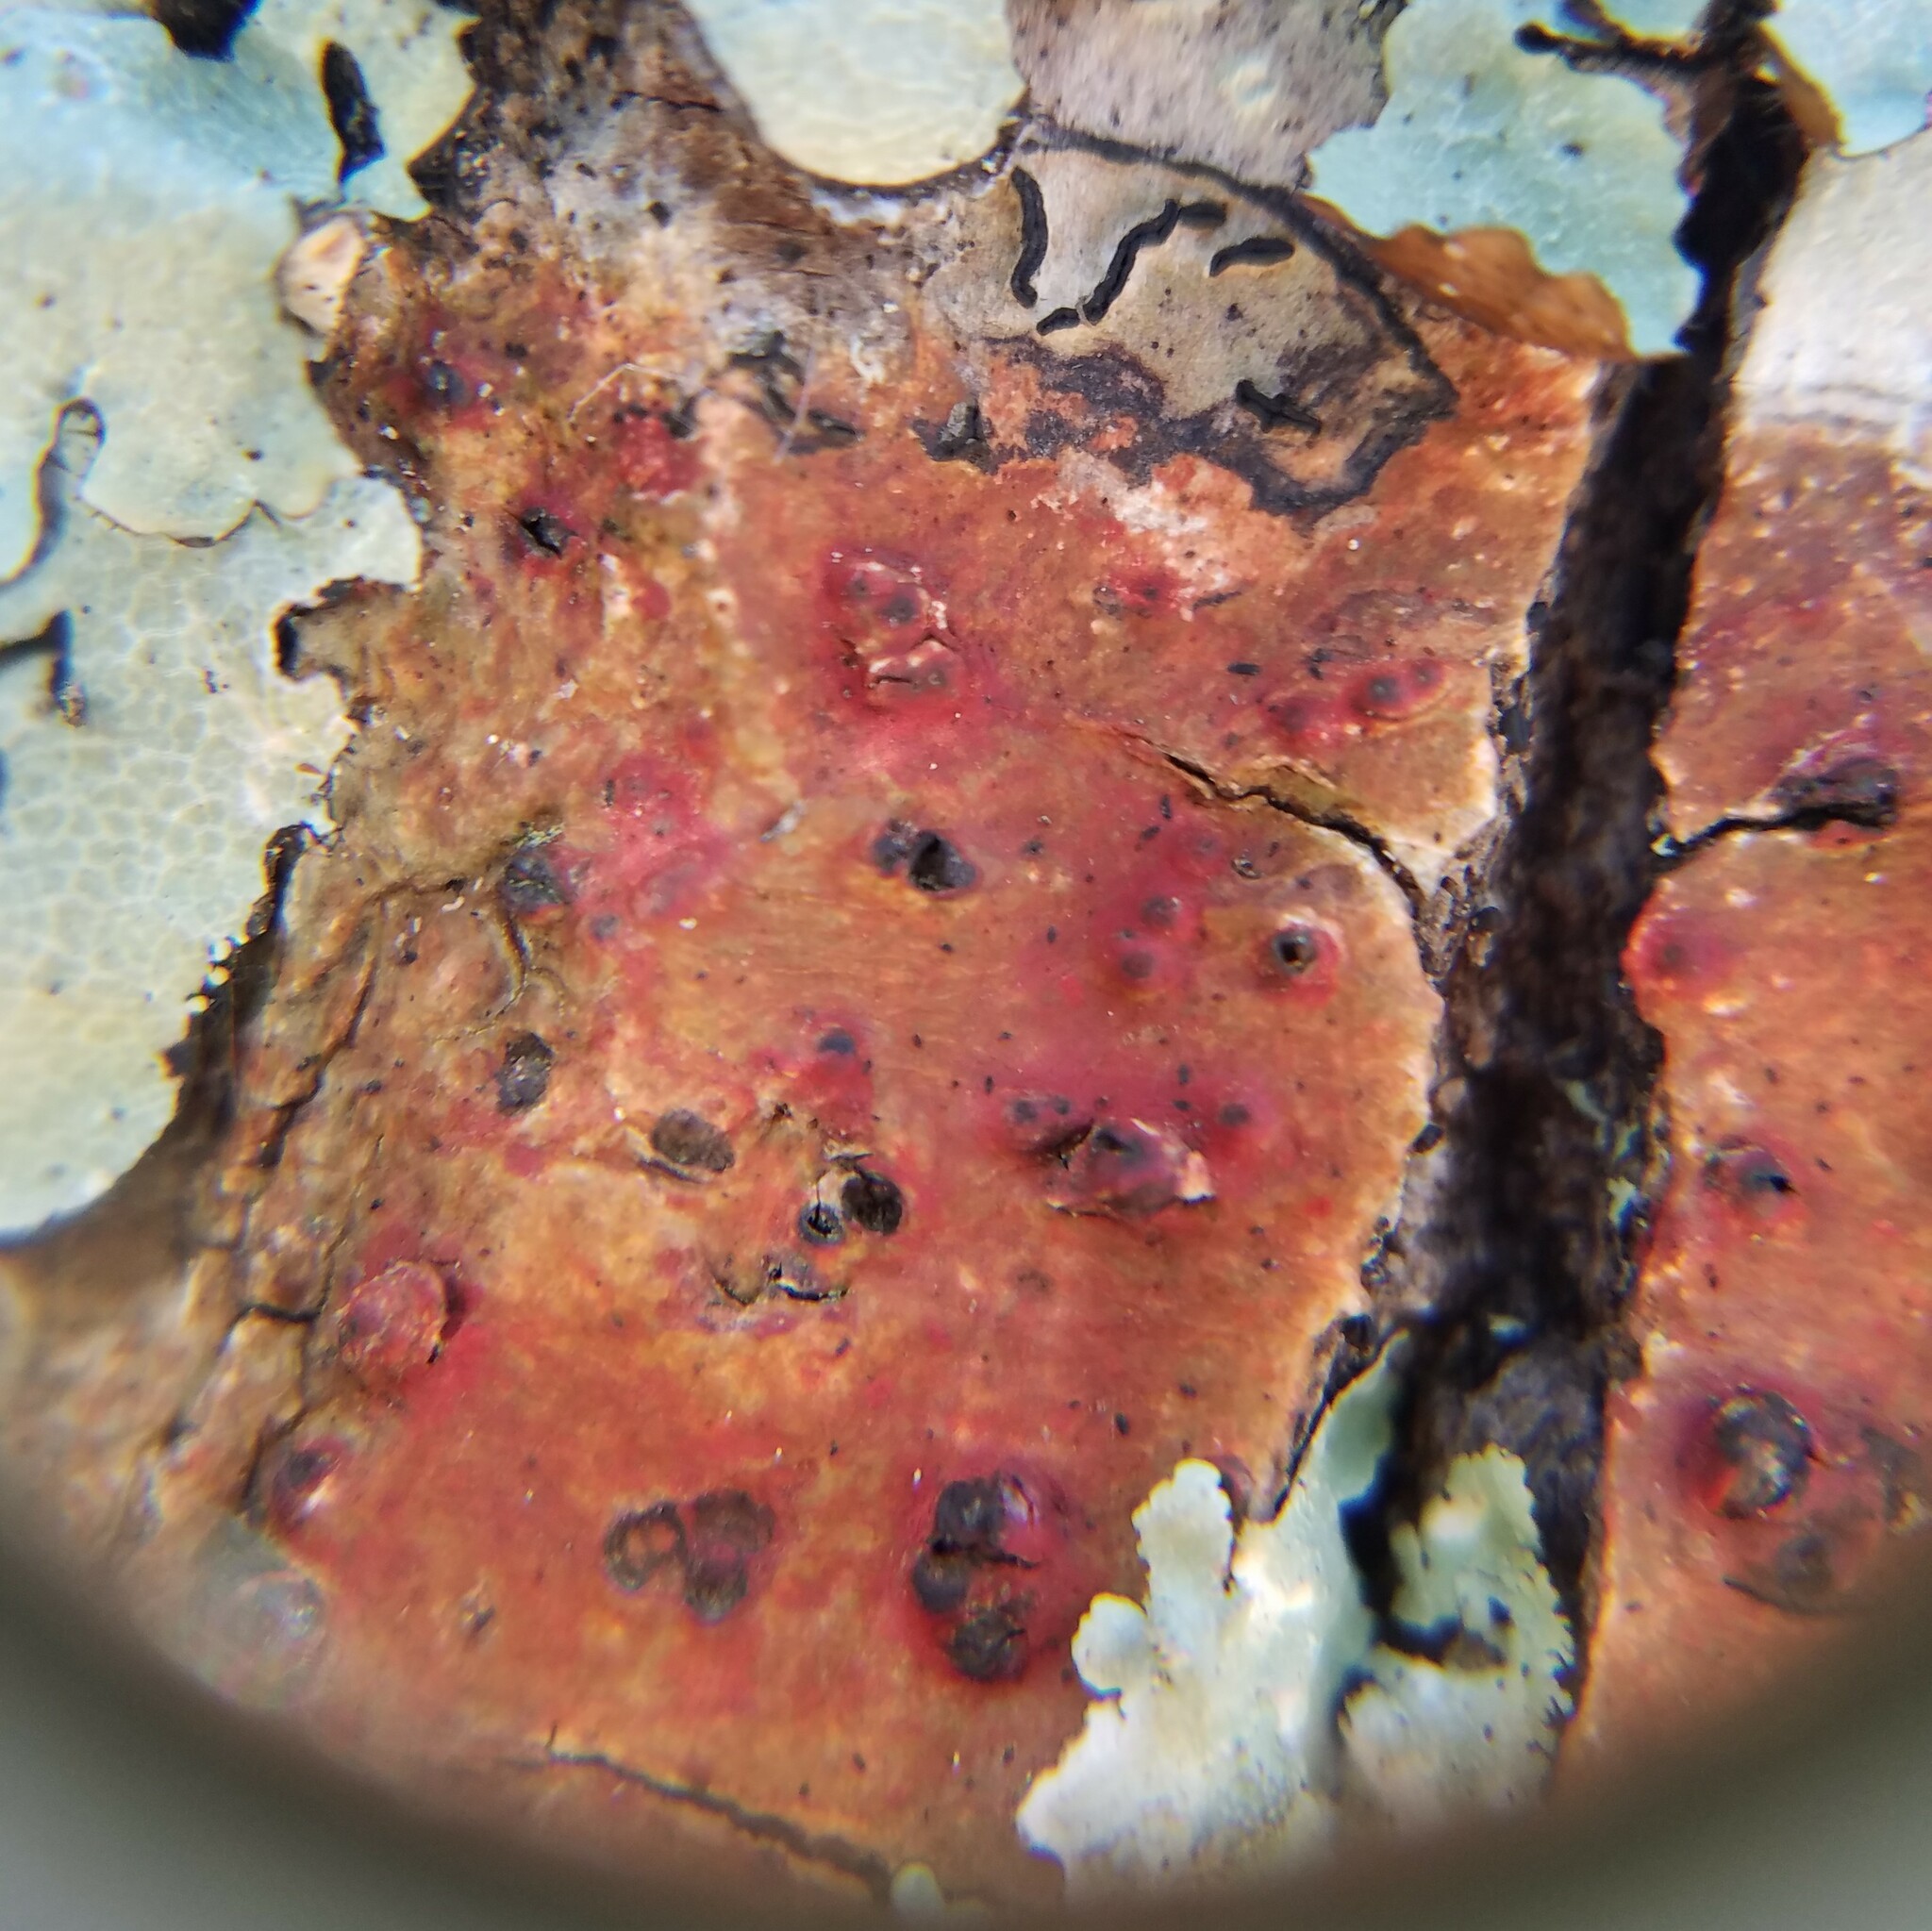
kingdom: Fungi
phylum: Ascomycota
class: Eurotiomycetes
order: Pyrenulales
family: Pyrenulaceae
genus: Pyrenula
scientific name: Pyrenula cruenta
